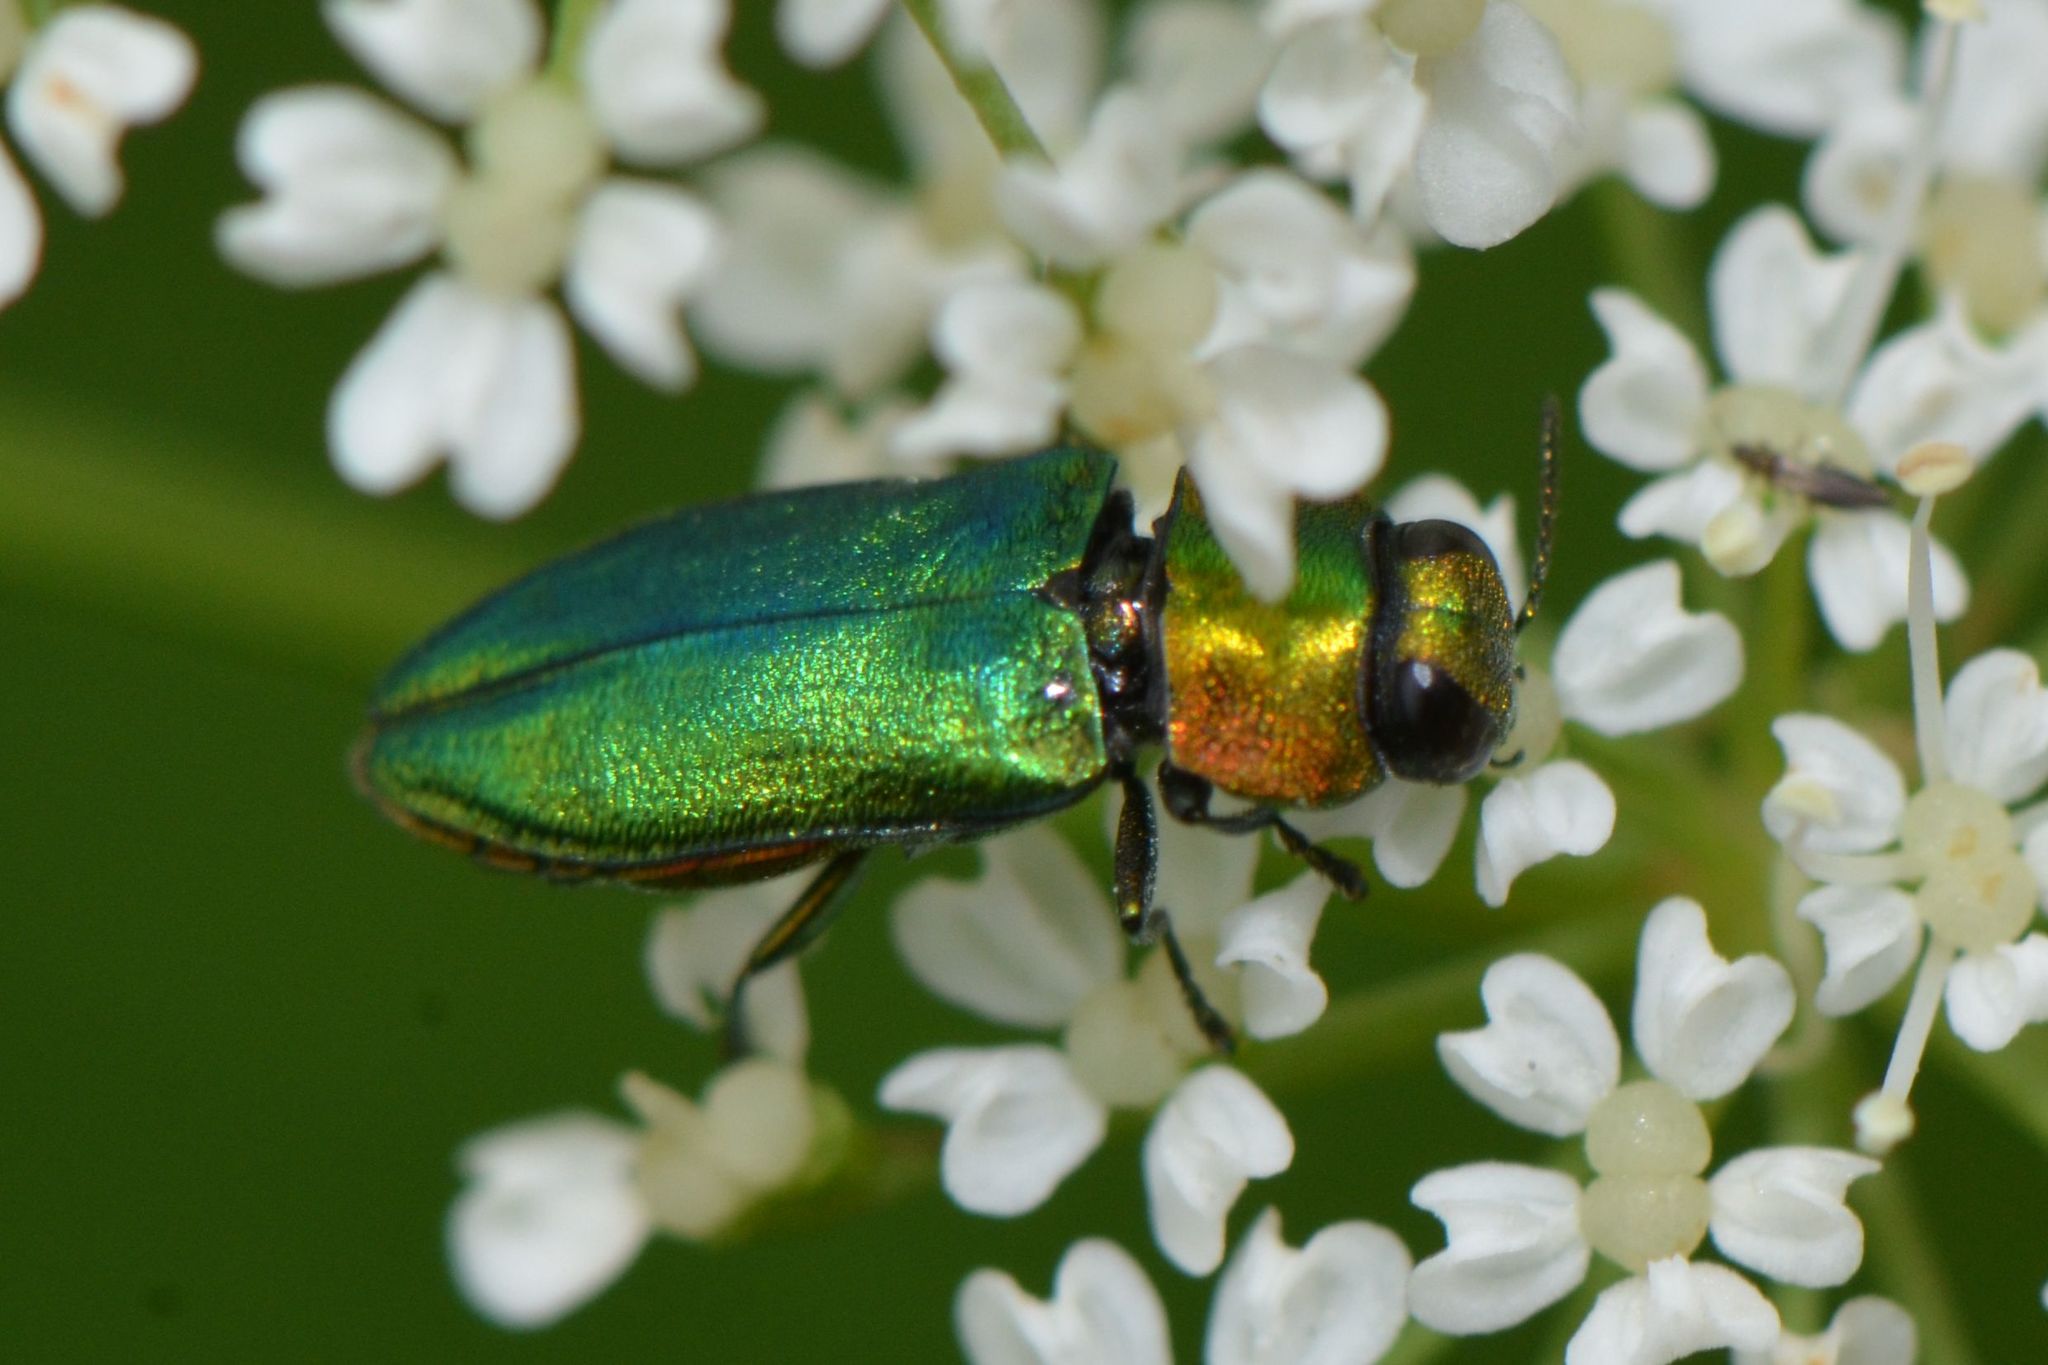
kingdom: Animalia
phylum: Arthropoda
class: Insecta
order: Coleoptera
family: Buprestidae
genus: Anthaxia
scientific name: Anthaxia nitidula
